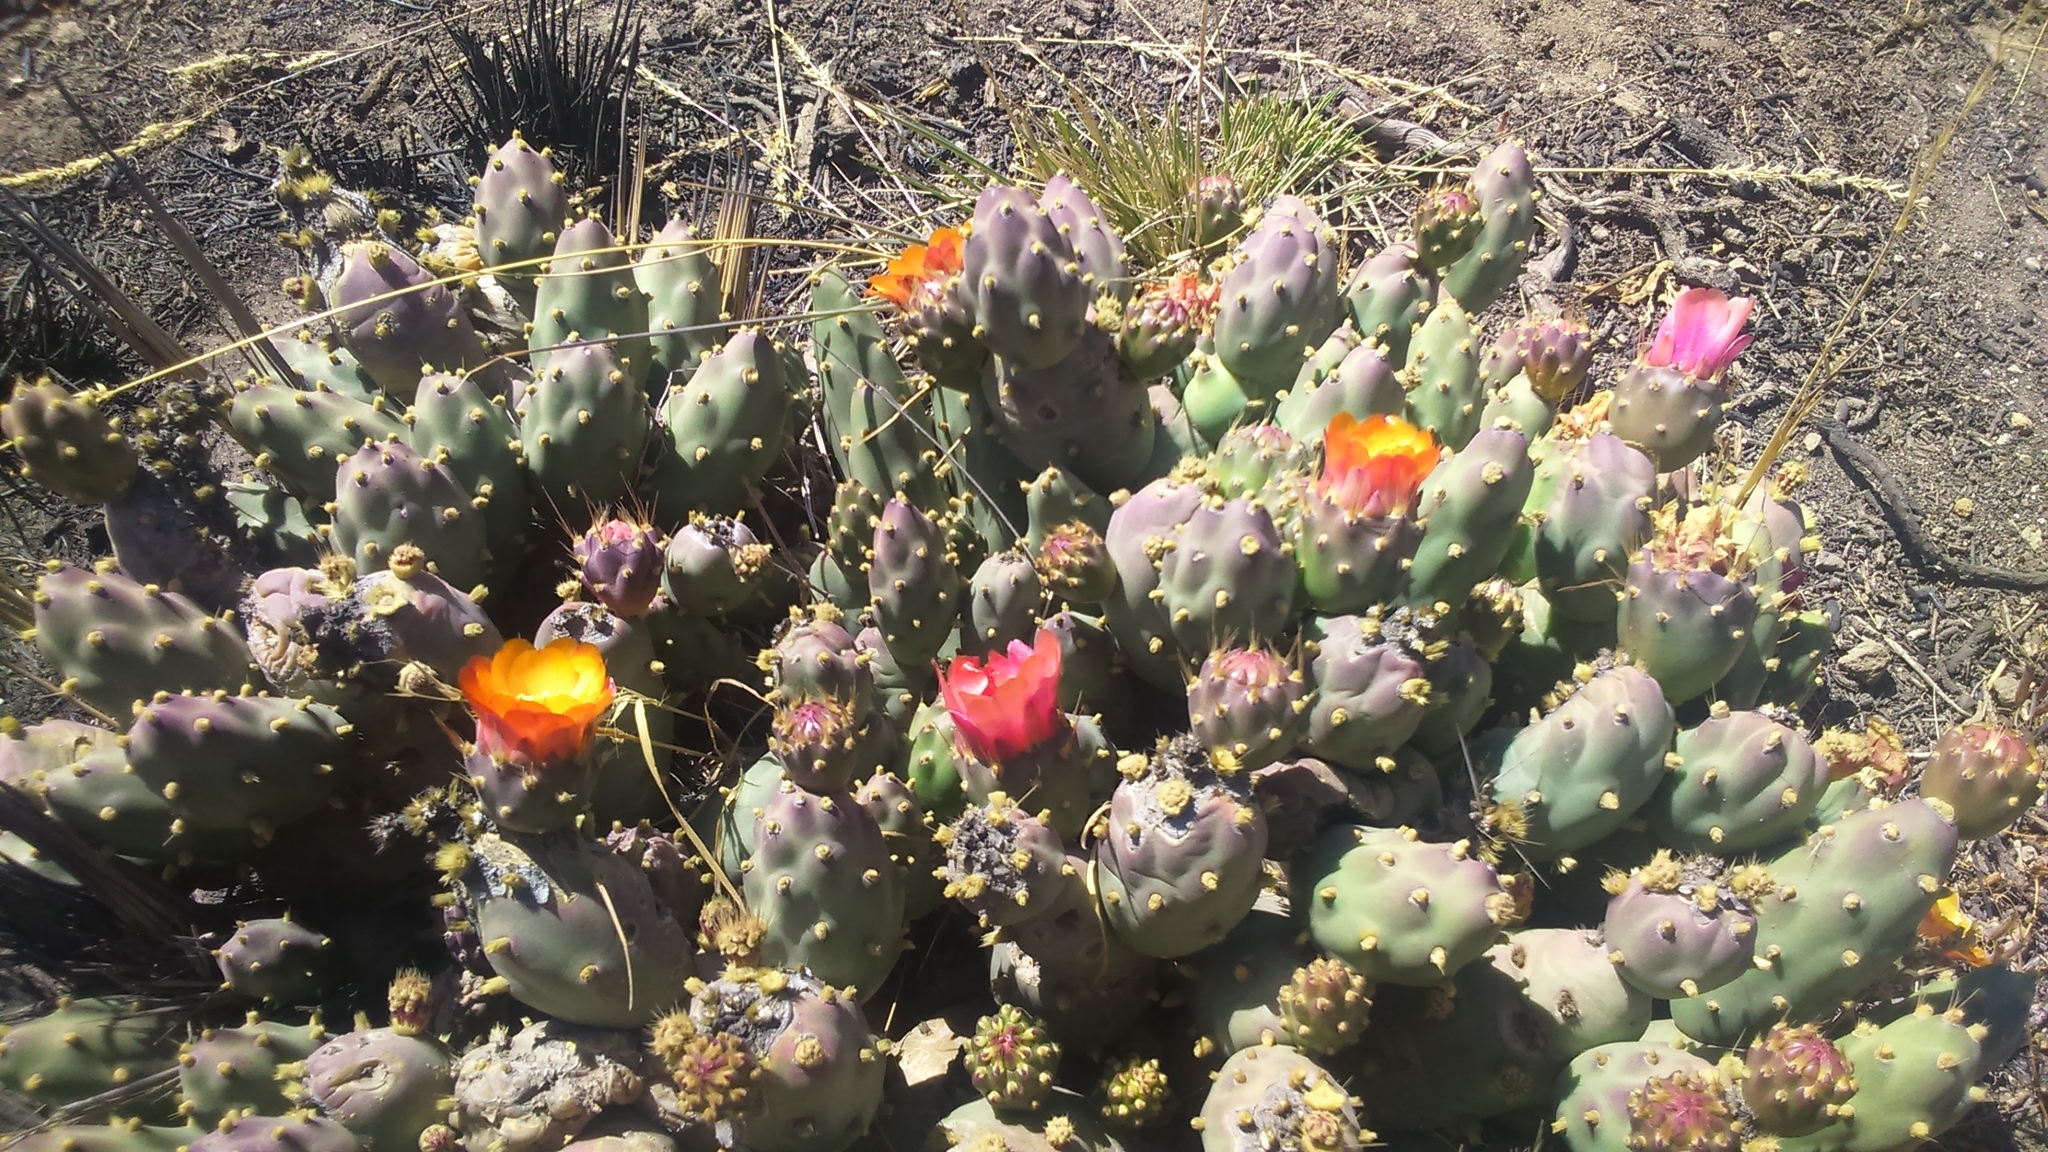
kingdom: Plantae
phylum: Tracheophyta
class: Magnoliopsida
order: Caryophyllales
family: Cactaceae
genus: Cumulopuntia
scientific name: Cumulopuntia corotilla
